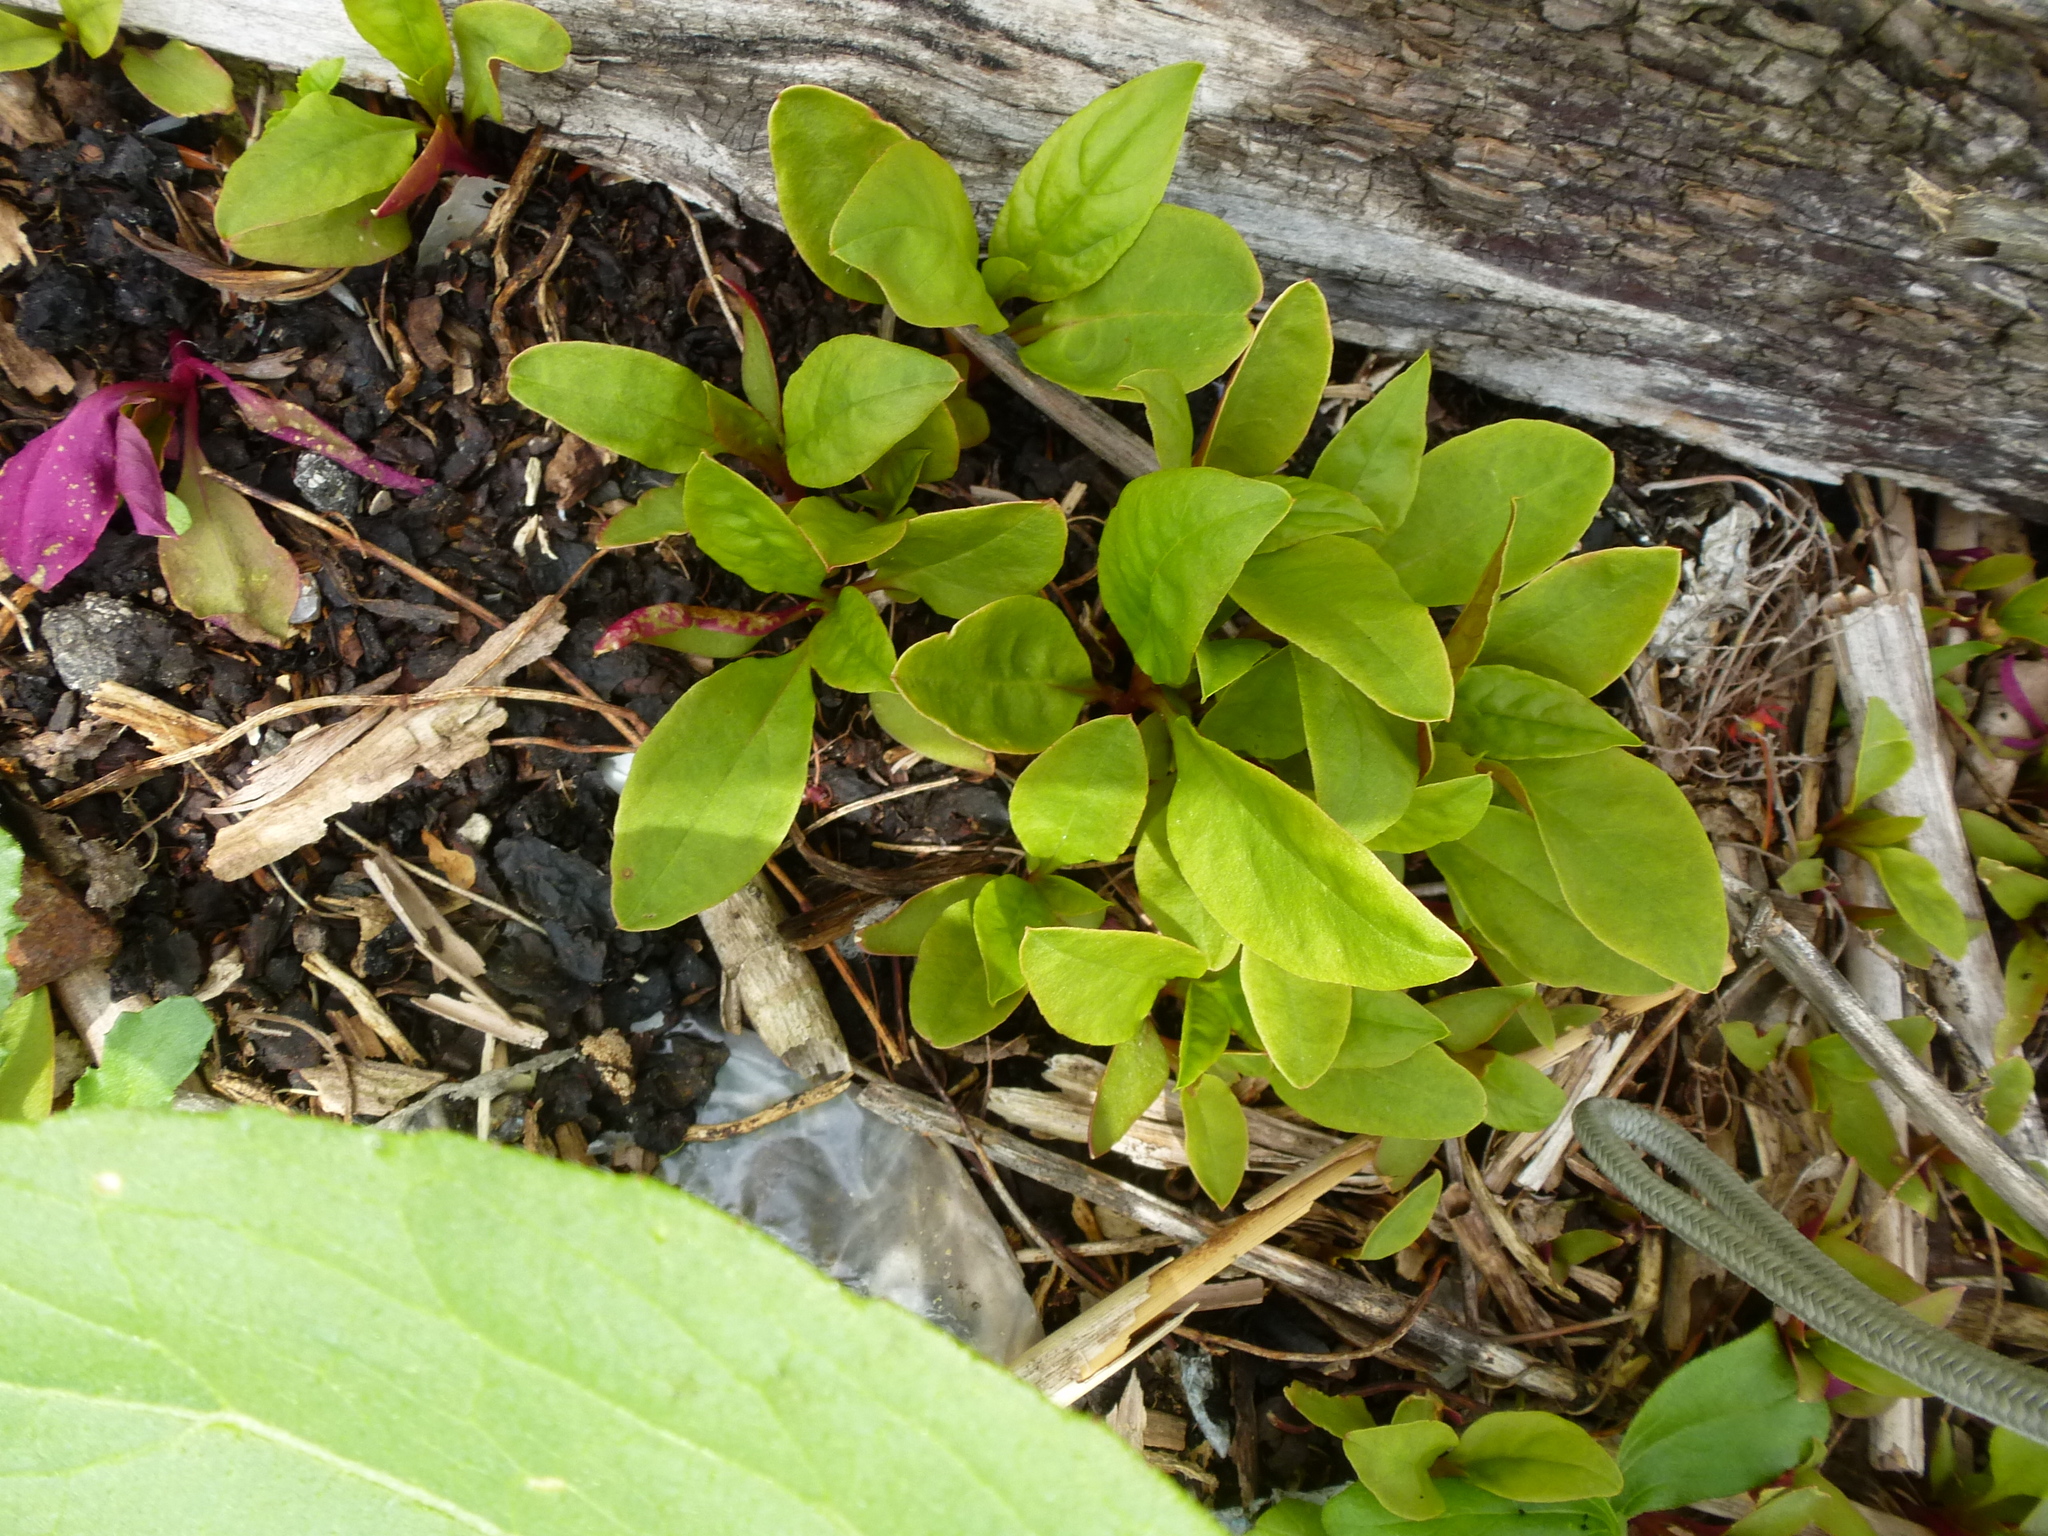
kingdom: Plantae
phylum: Tracheophyta
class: Magnoliopsida
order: Caryophyllales
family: Phytolaccaceae
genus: Phytolacca
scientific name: Phytolacca americana
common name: American pokeweed
